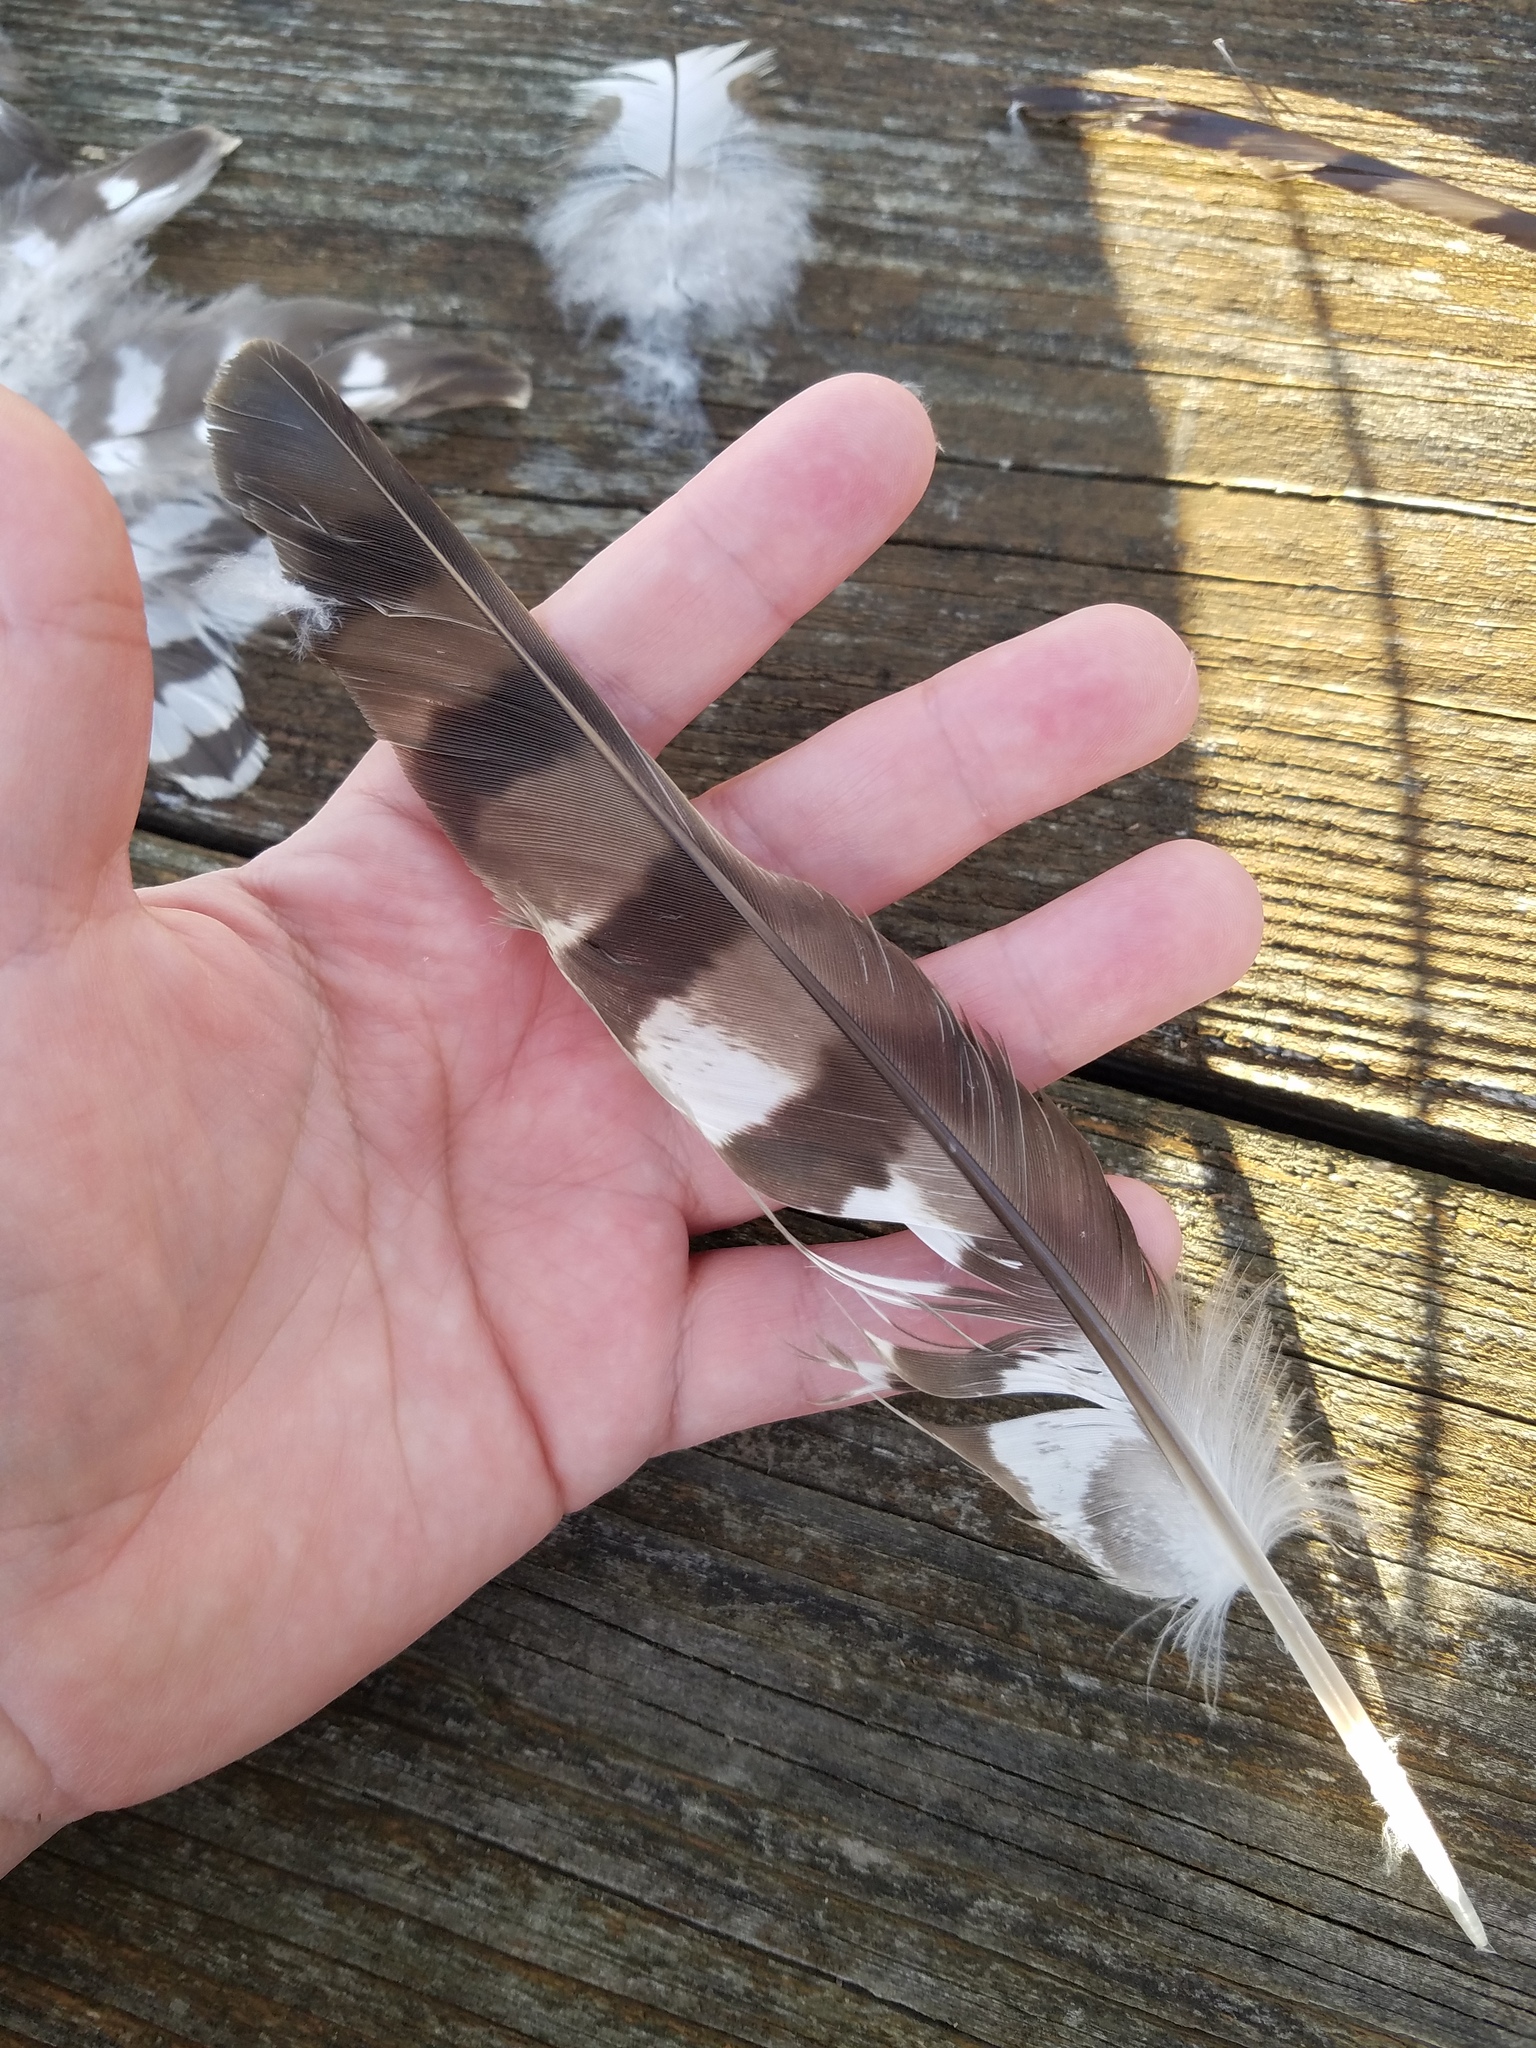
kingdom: Animalia
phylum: Chordata
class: Aves
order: Accipitriformes
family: Accipitridae
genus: Accipiter
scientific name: Accipiter cooperii
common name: Cooper's hawk
